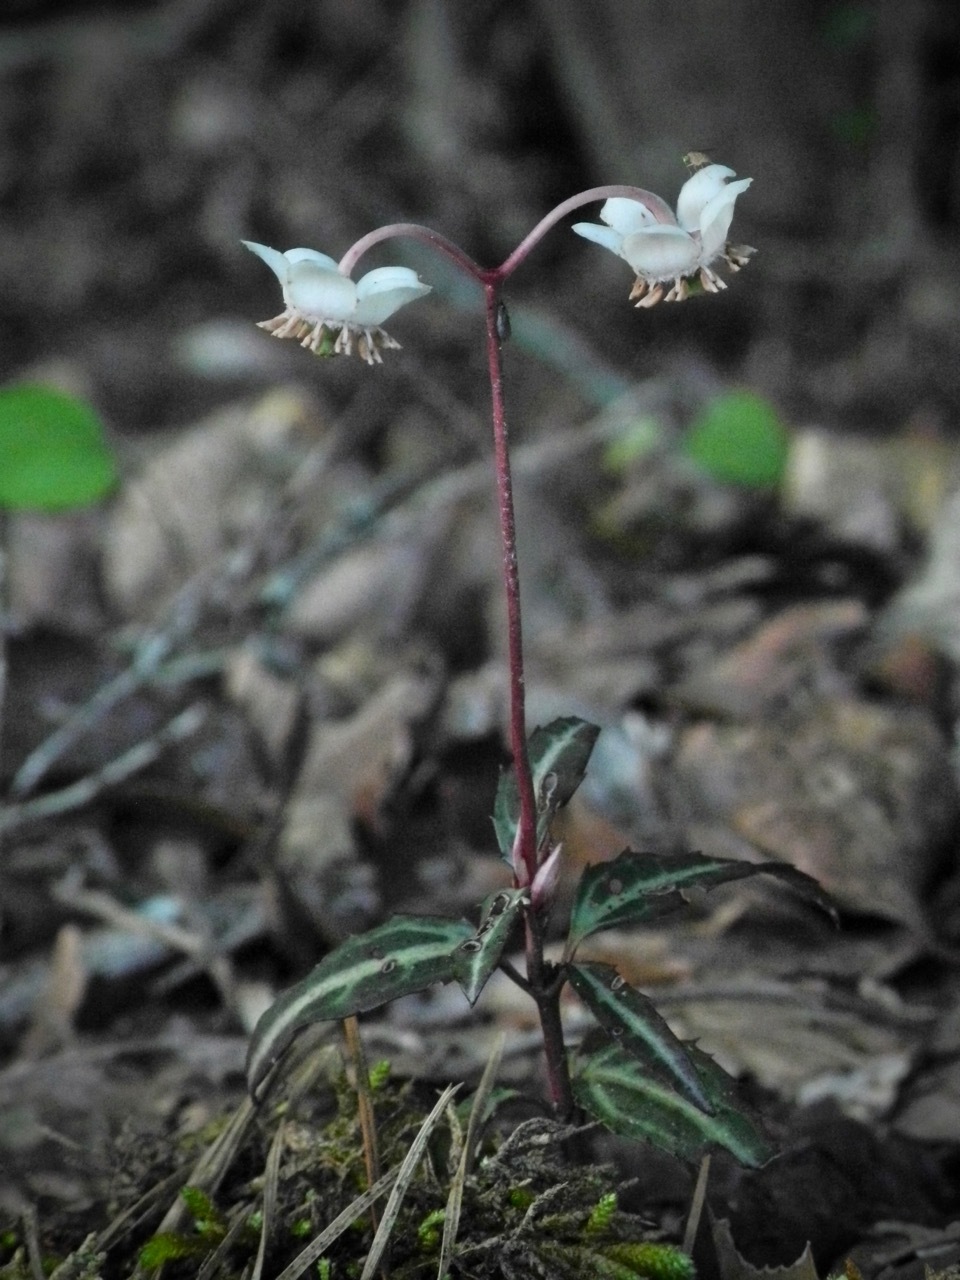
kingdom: Plantae
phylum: Tracheophyta
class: Magnoliopsida
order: Ericales
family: Ericaceae
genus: Chimaphila
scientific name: Chimaphila maculata
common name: Spotted pipsissewa
